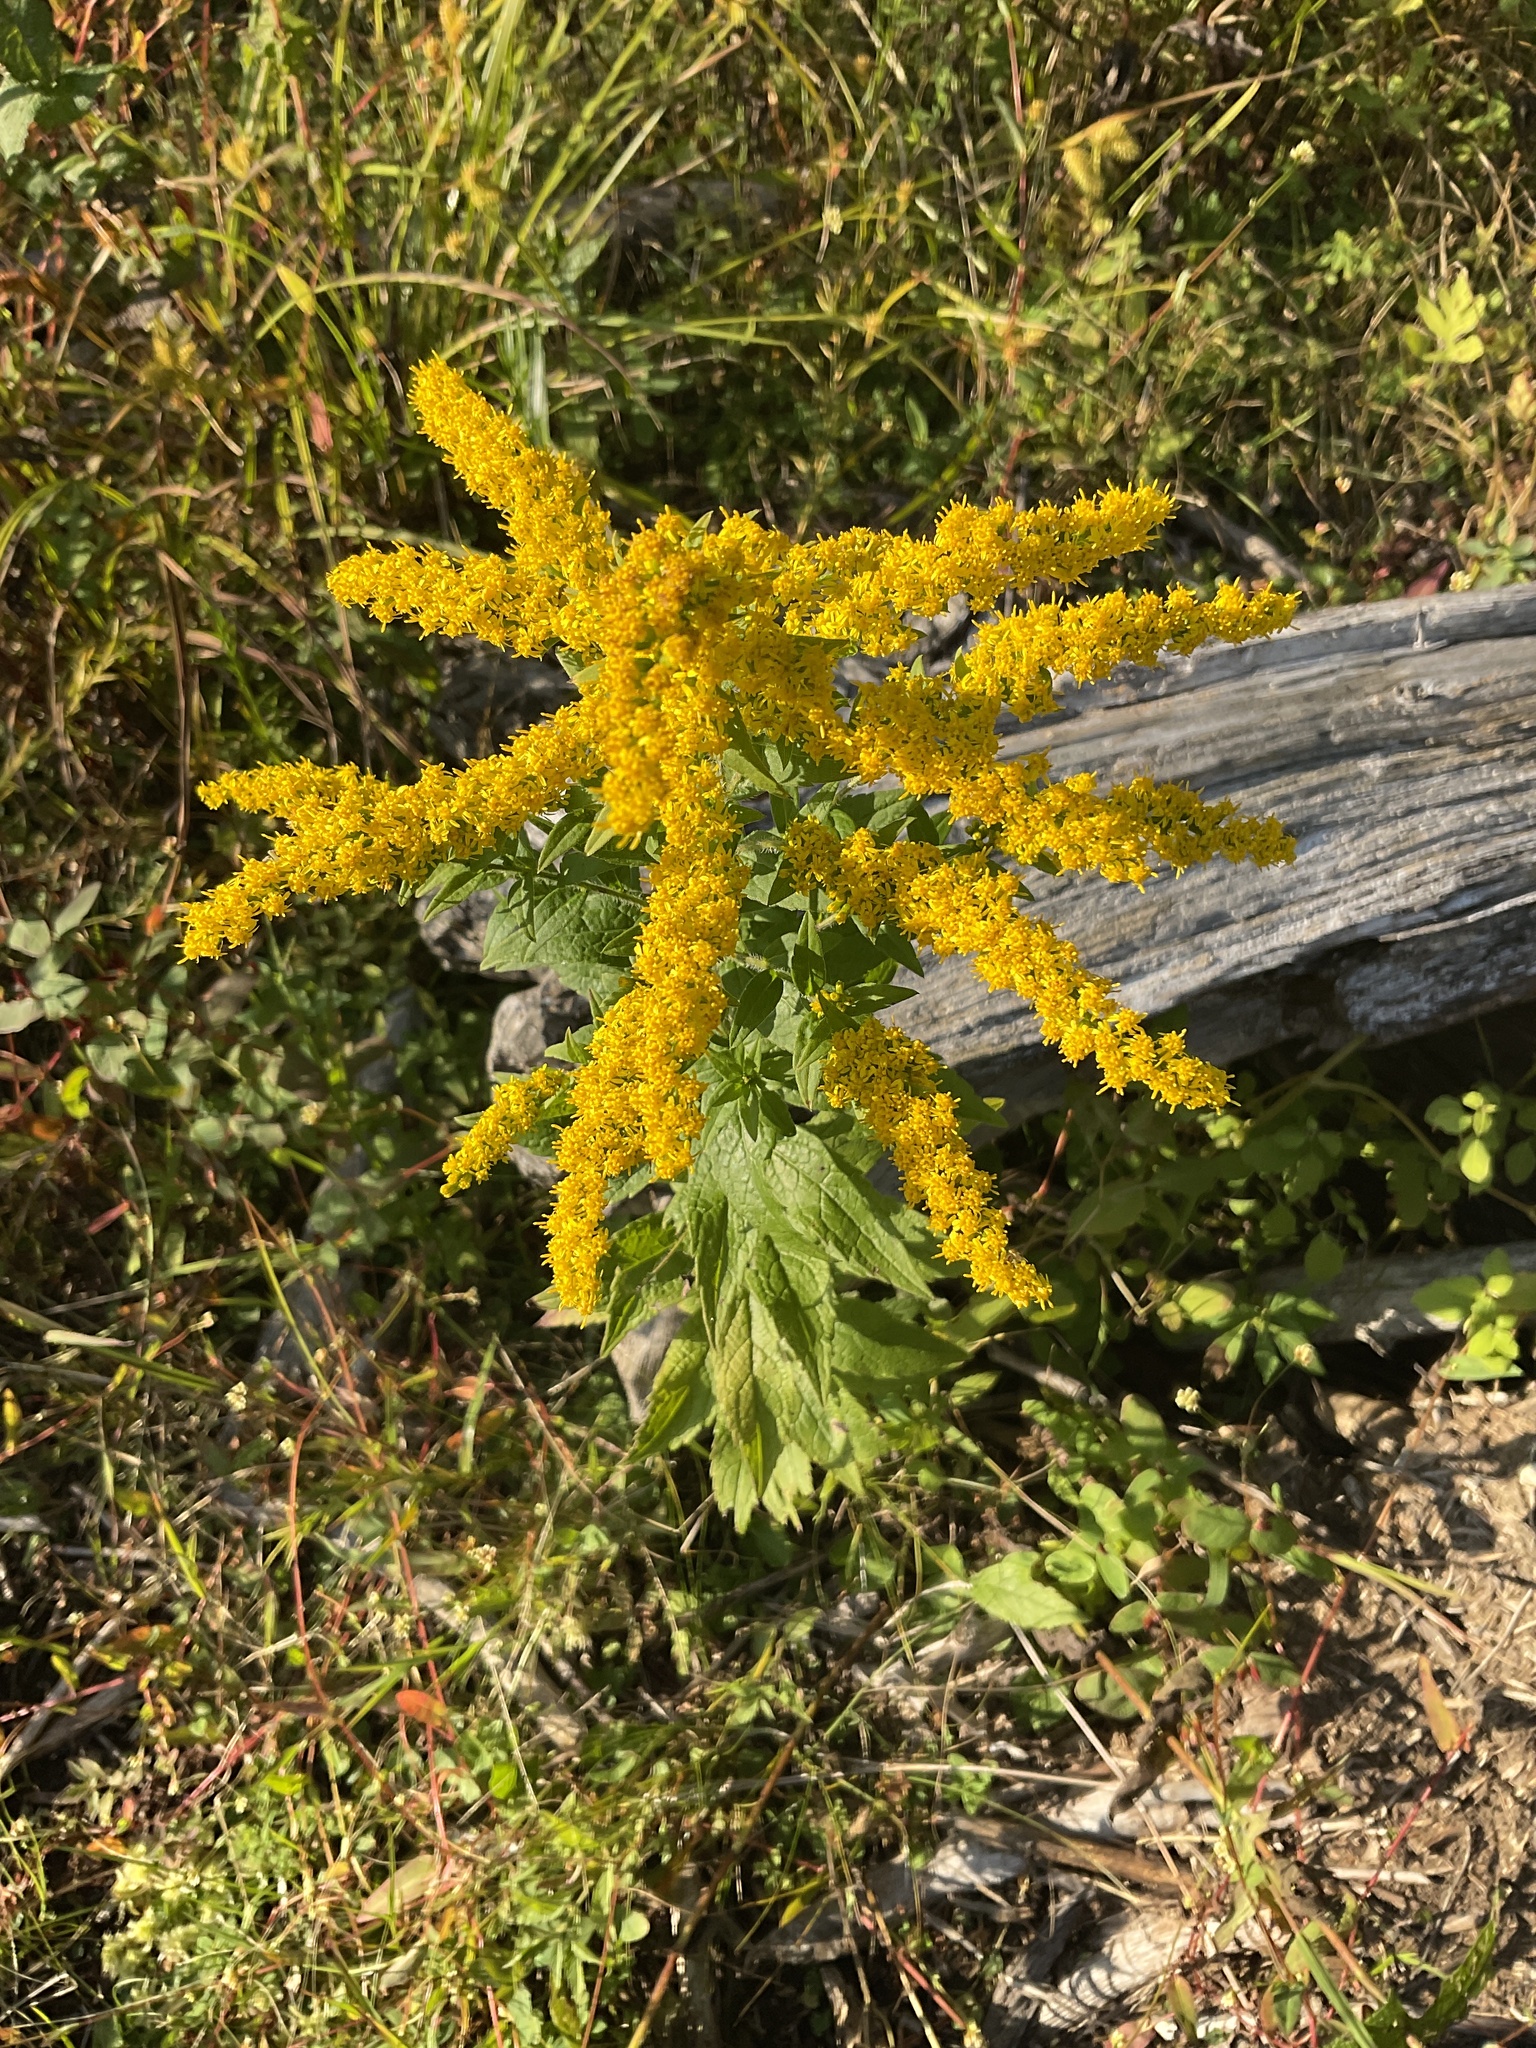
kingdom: Plantae
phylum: Tracheophyta
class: Magnoliopsida
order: Asterales
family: Asteraceae
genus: Solidago
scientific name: Solidago rugosa
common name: Rough-stemmed goldenrod
